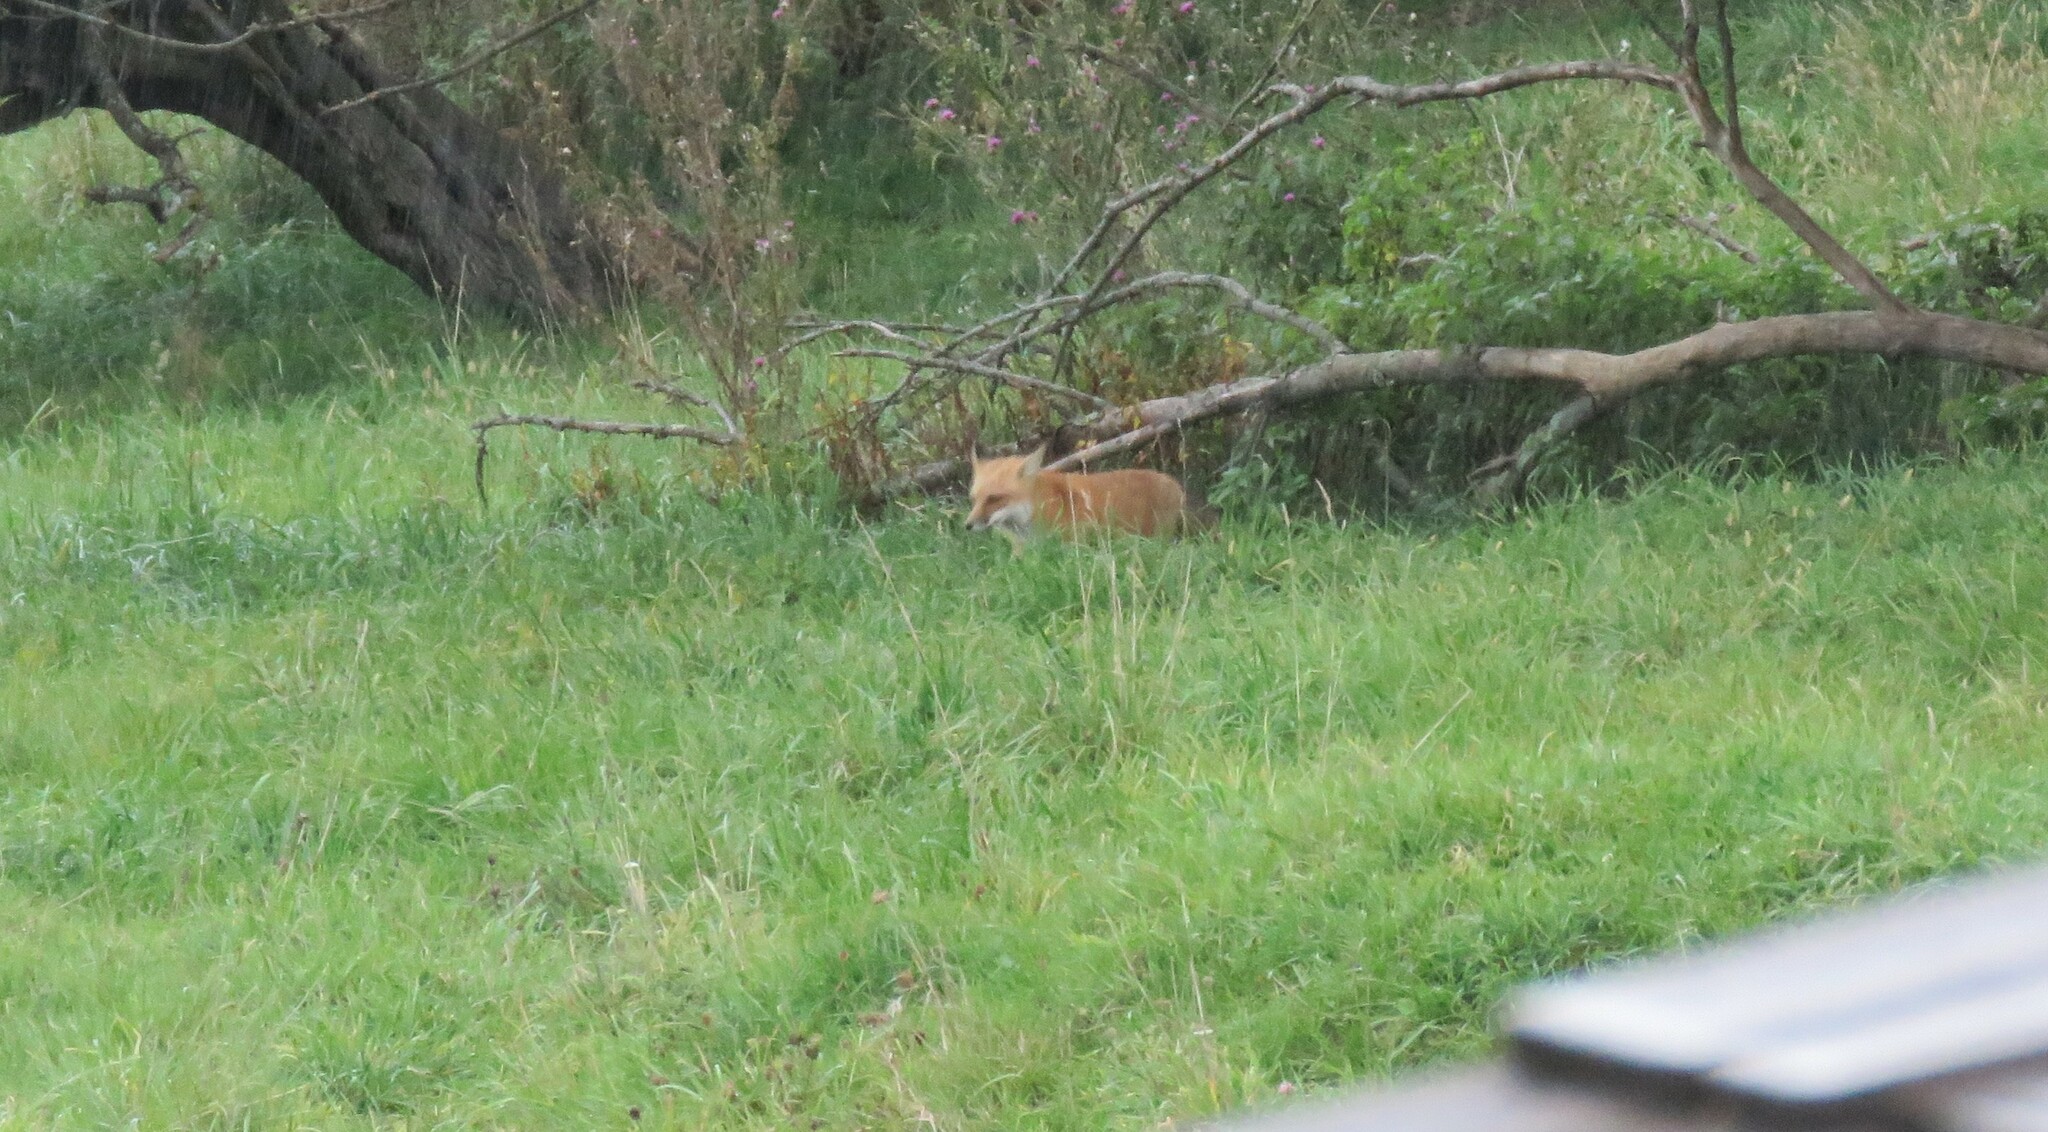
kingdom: Animalia
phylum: Chordata
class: Mammalia
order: Carnivora
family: Canidae
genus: Vulpes
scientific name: Vulpes vulpes
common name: Red fox
